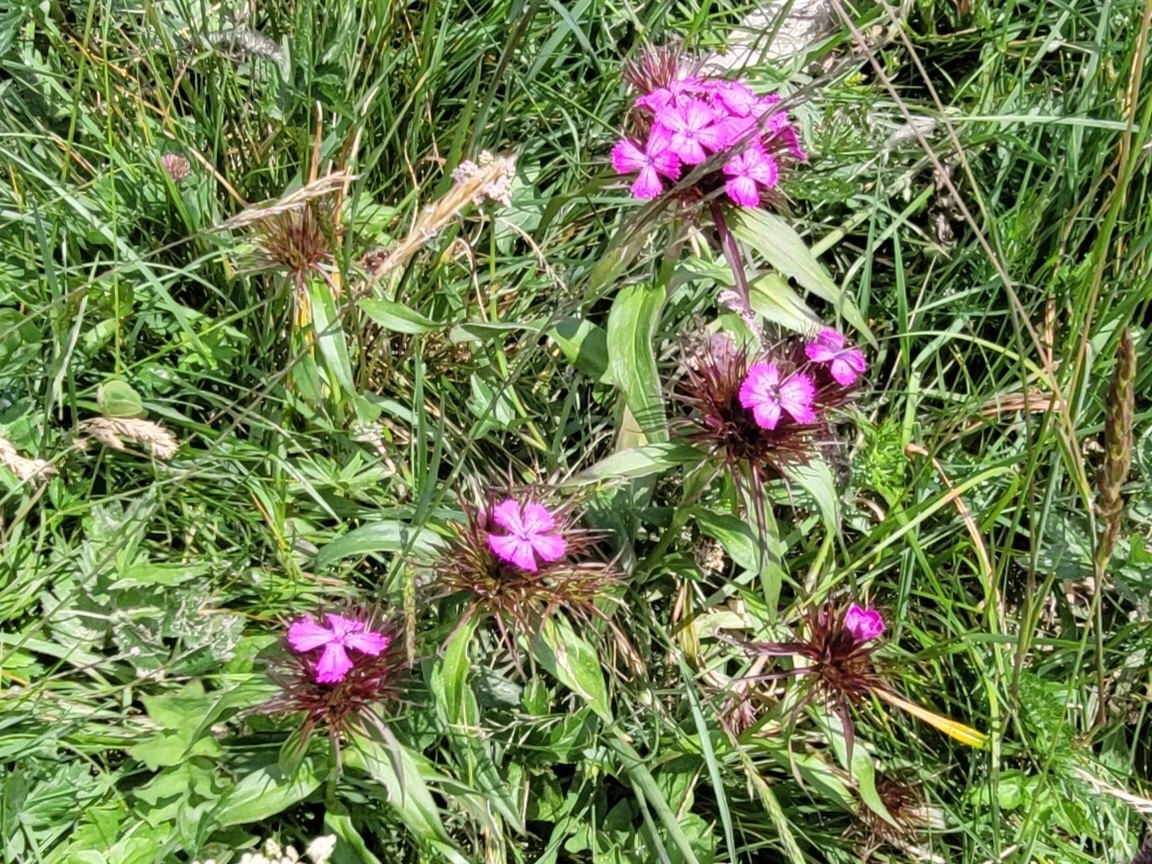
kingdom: Plantae
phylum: Tracheophyta
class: Magnoliopsida
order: Caryophyllales
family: Caryophyllaceae
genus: Dianthus
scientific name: Dianthus barbatus
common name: Sweet-william
